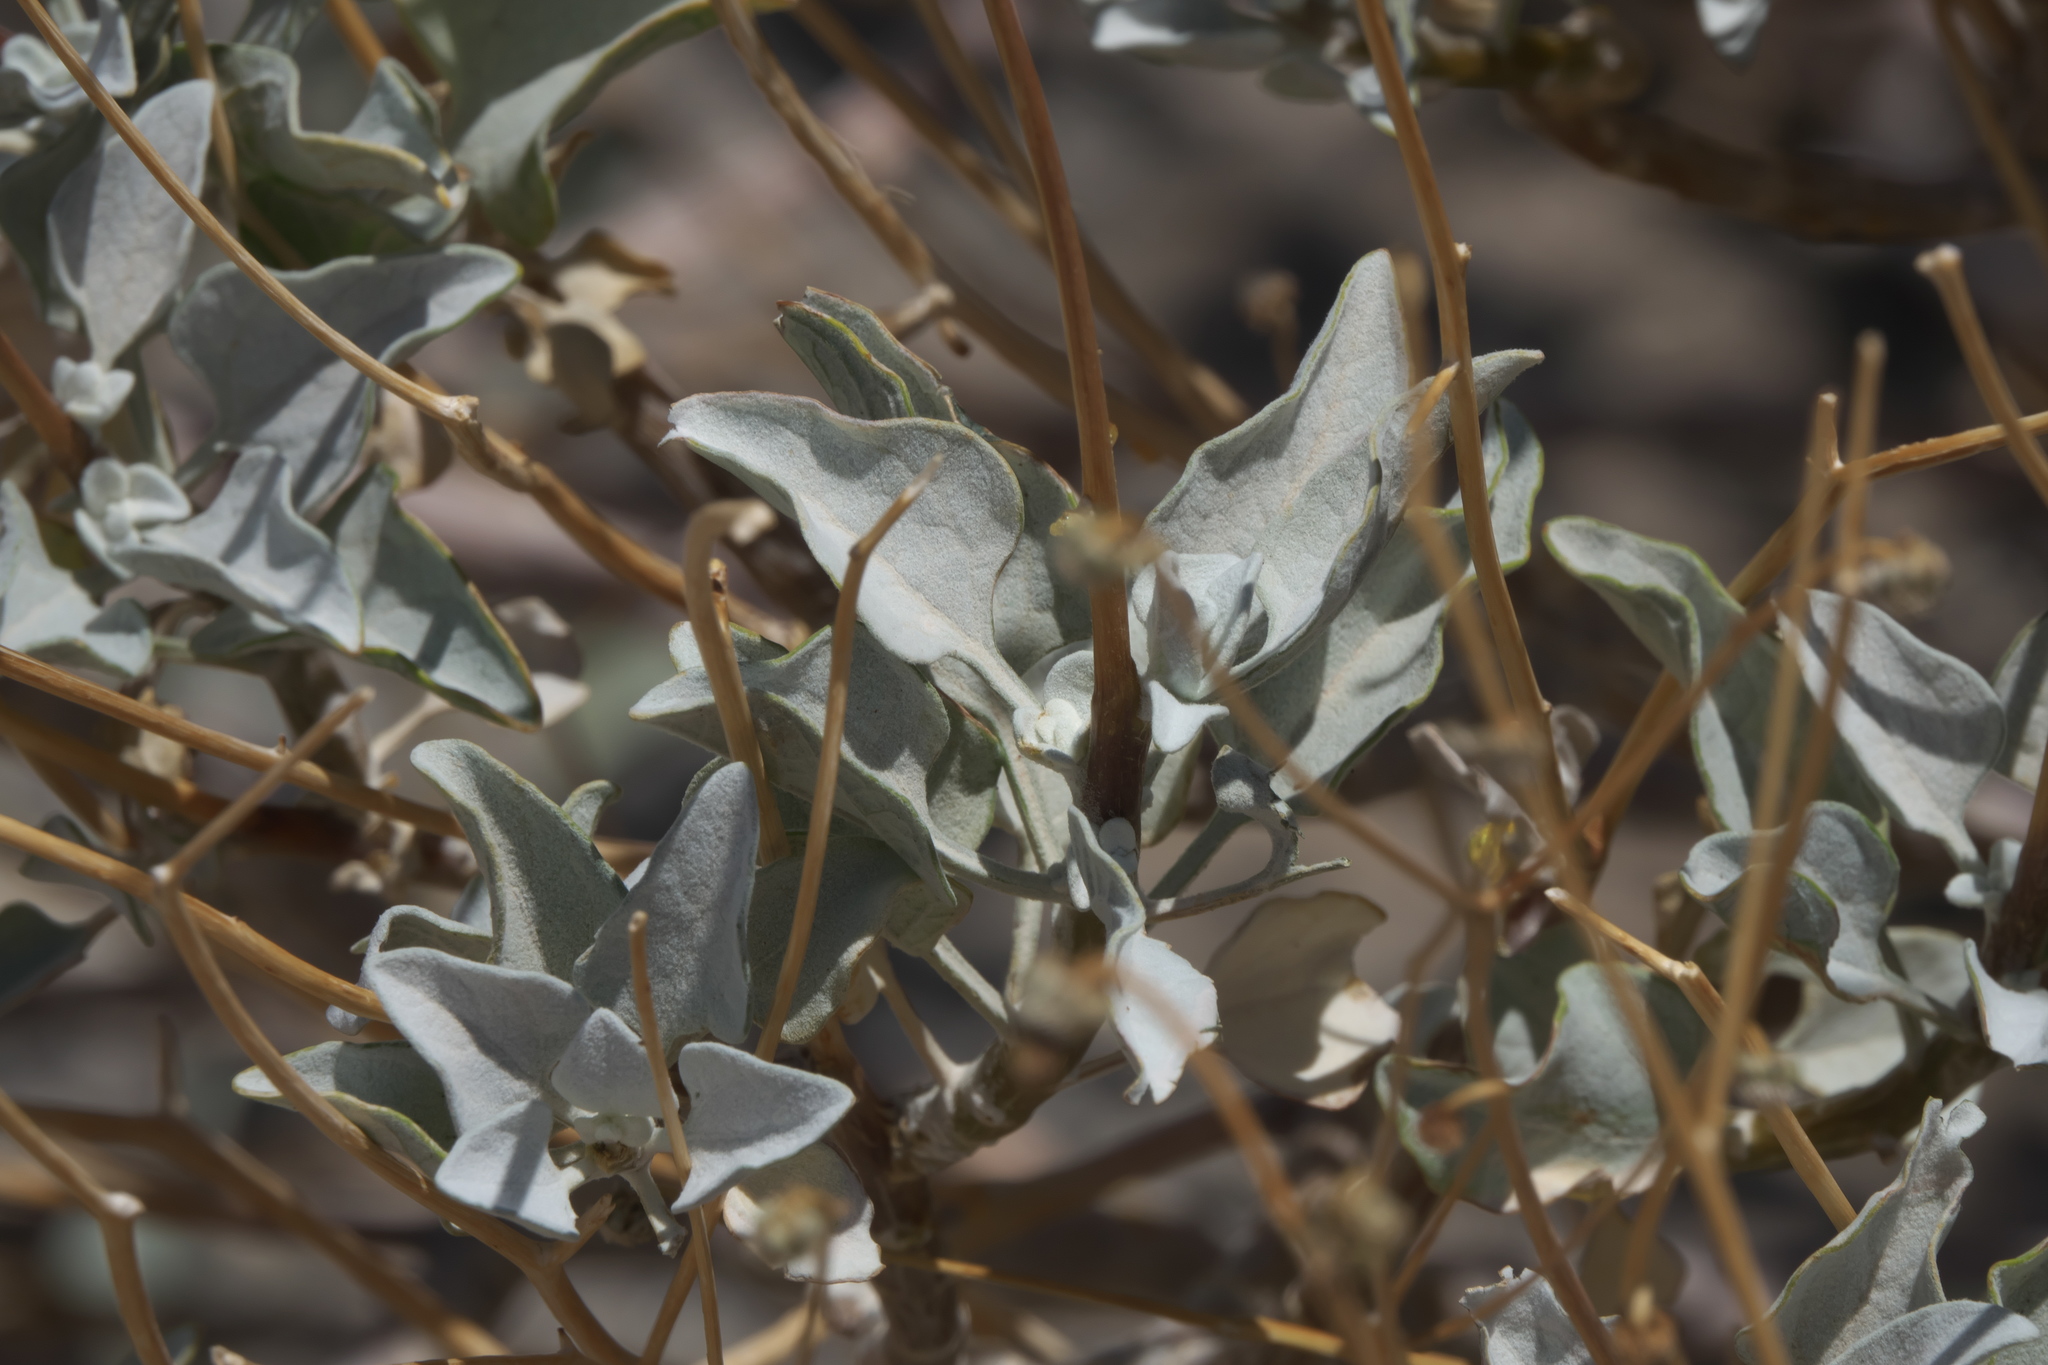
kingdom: Plantae
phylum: Tracheophyta
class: Magnoliopsida
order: Asterales
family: Asteraceae
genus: Encelia
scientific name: Encelia farinosa
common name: Brittlebush
